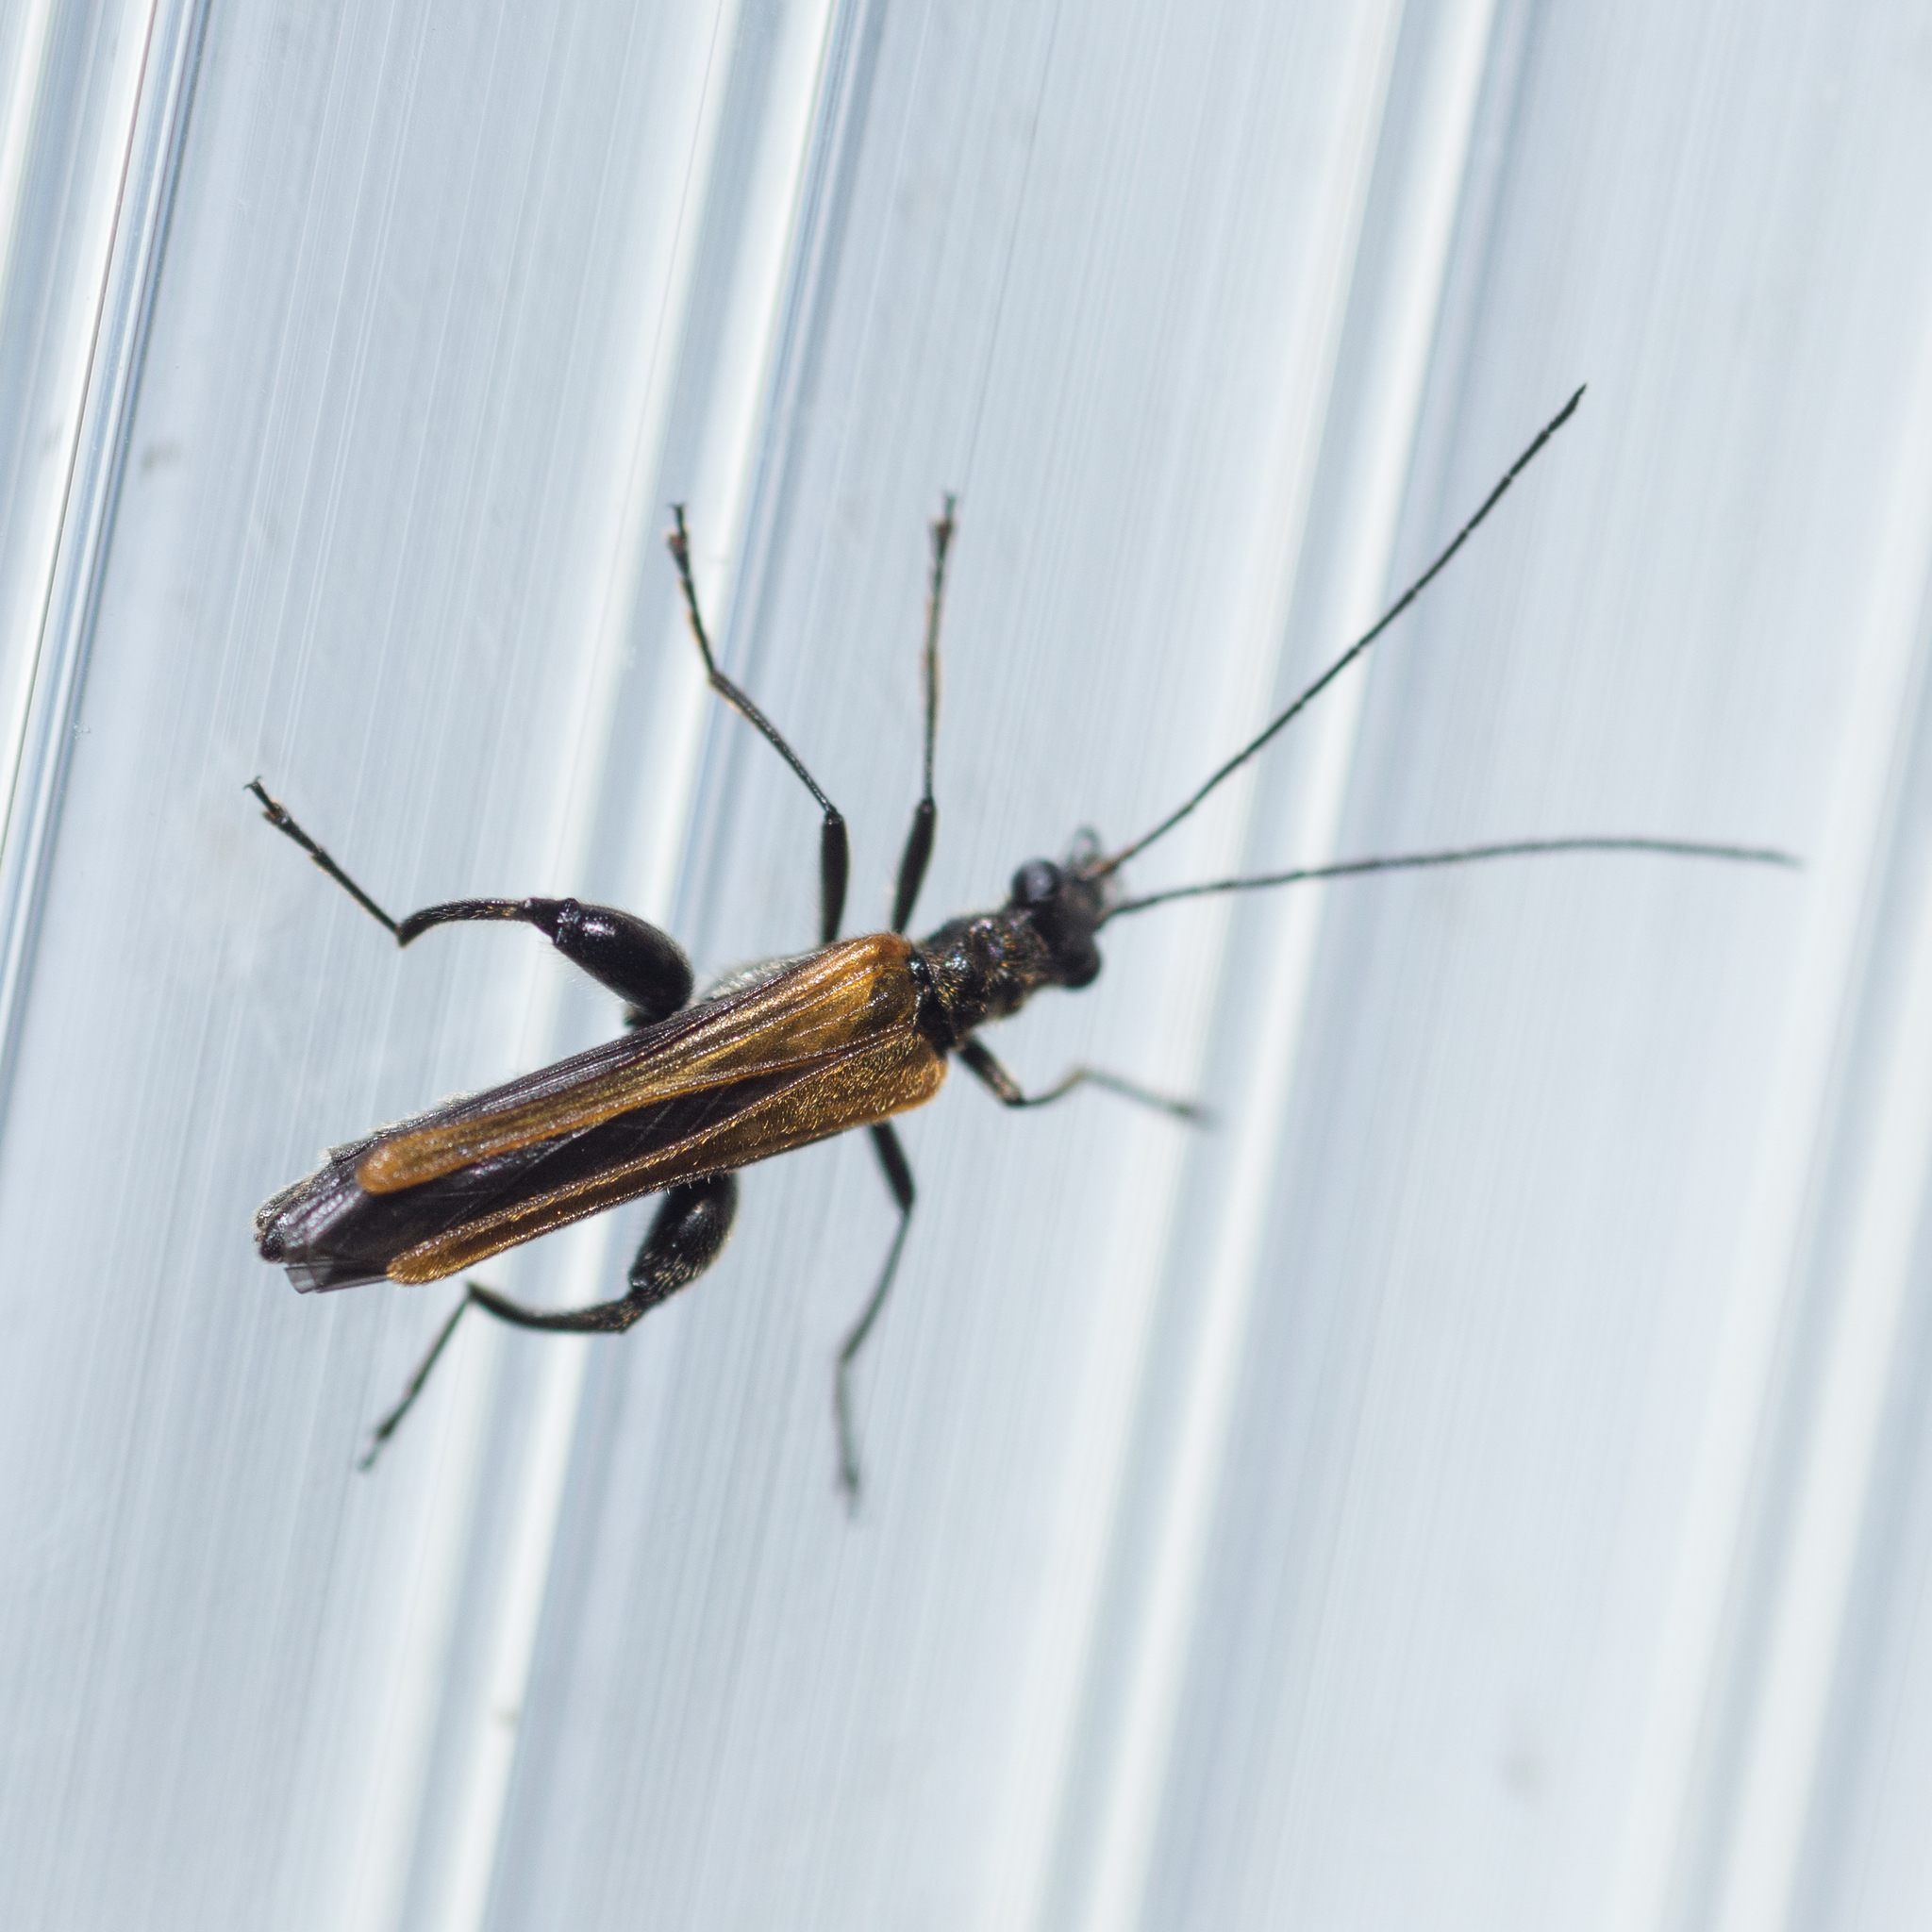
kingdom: Animalia
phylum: Arthropoda
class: Insecta
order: Coleoptera
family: Oedemeridae
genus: Oedemera
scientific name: Oedemera femorata
